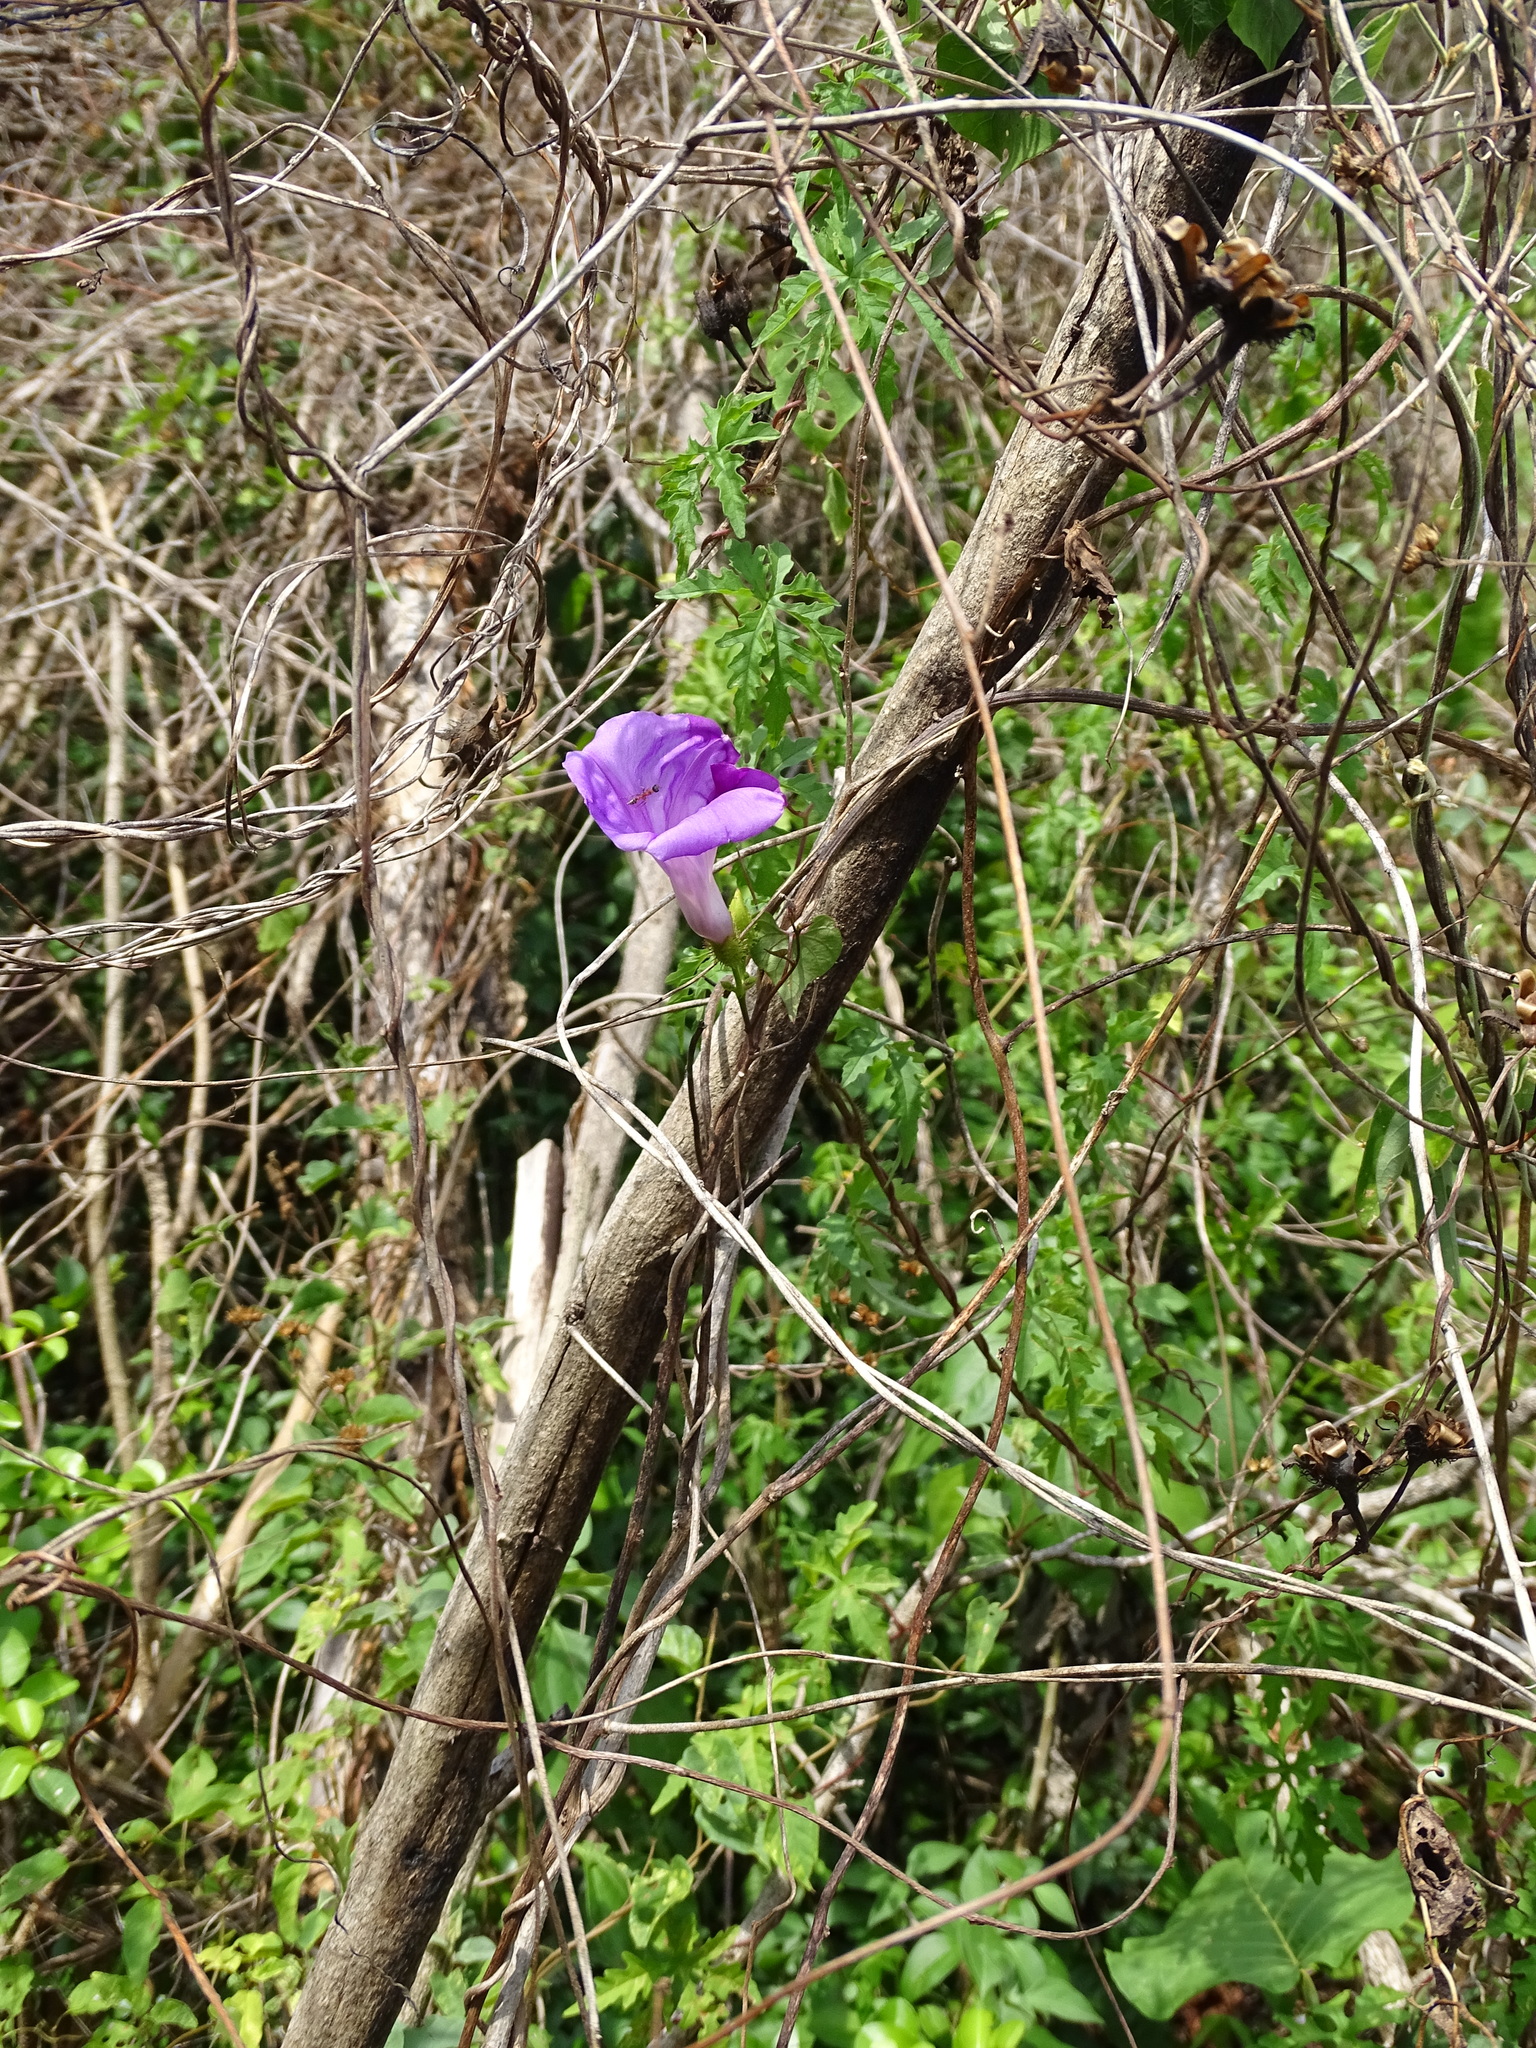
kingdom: Plantae
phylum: Tracheophyta
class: Magnoliopsida
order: Solanales
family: Convolvulaceae
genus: Ipomoea
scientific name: Ipomoea crinicalyx
